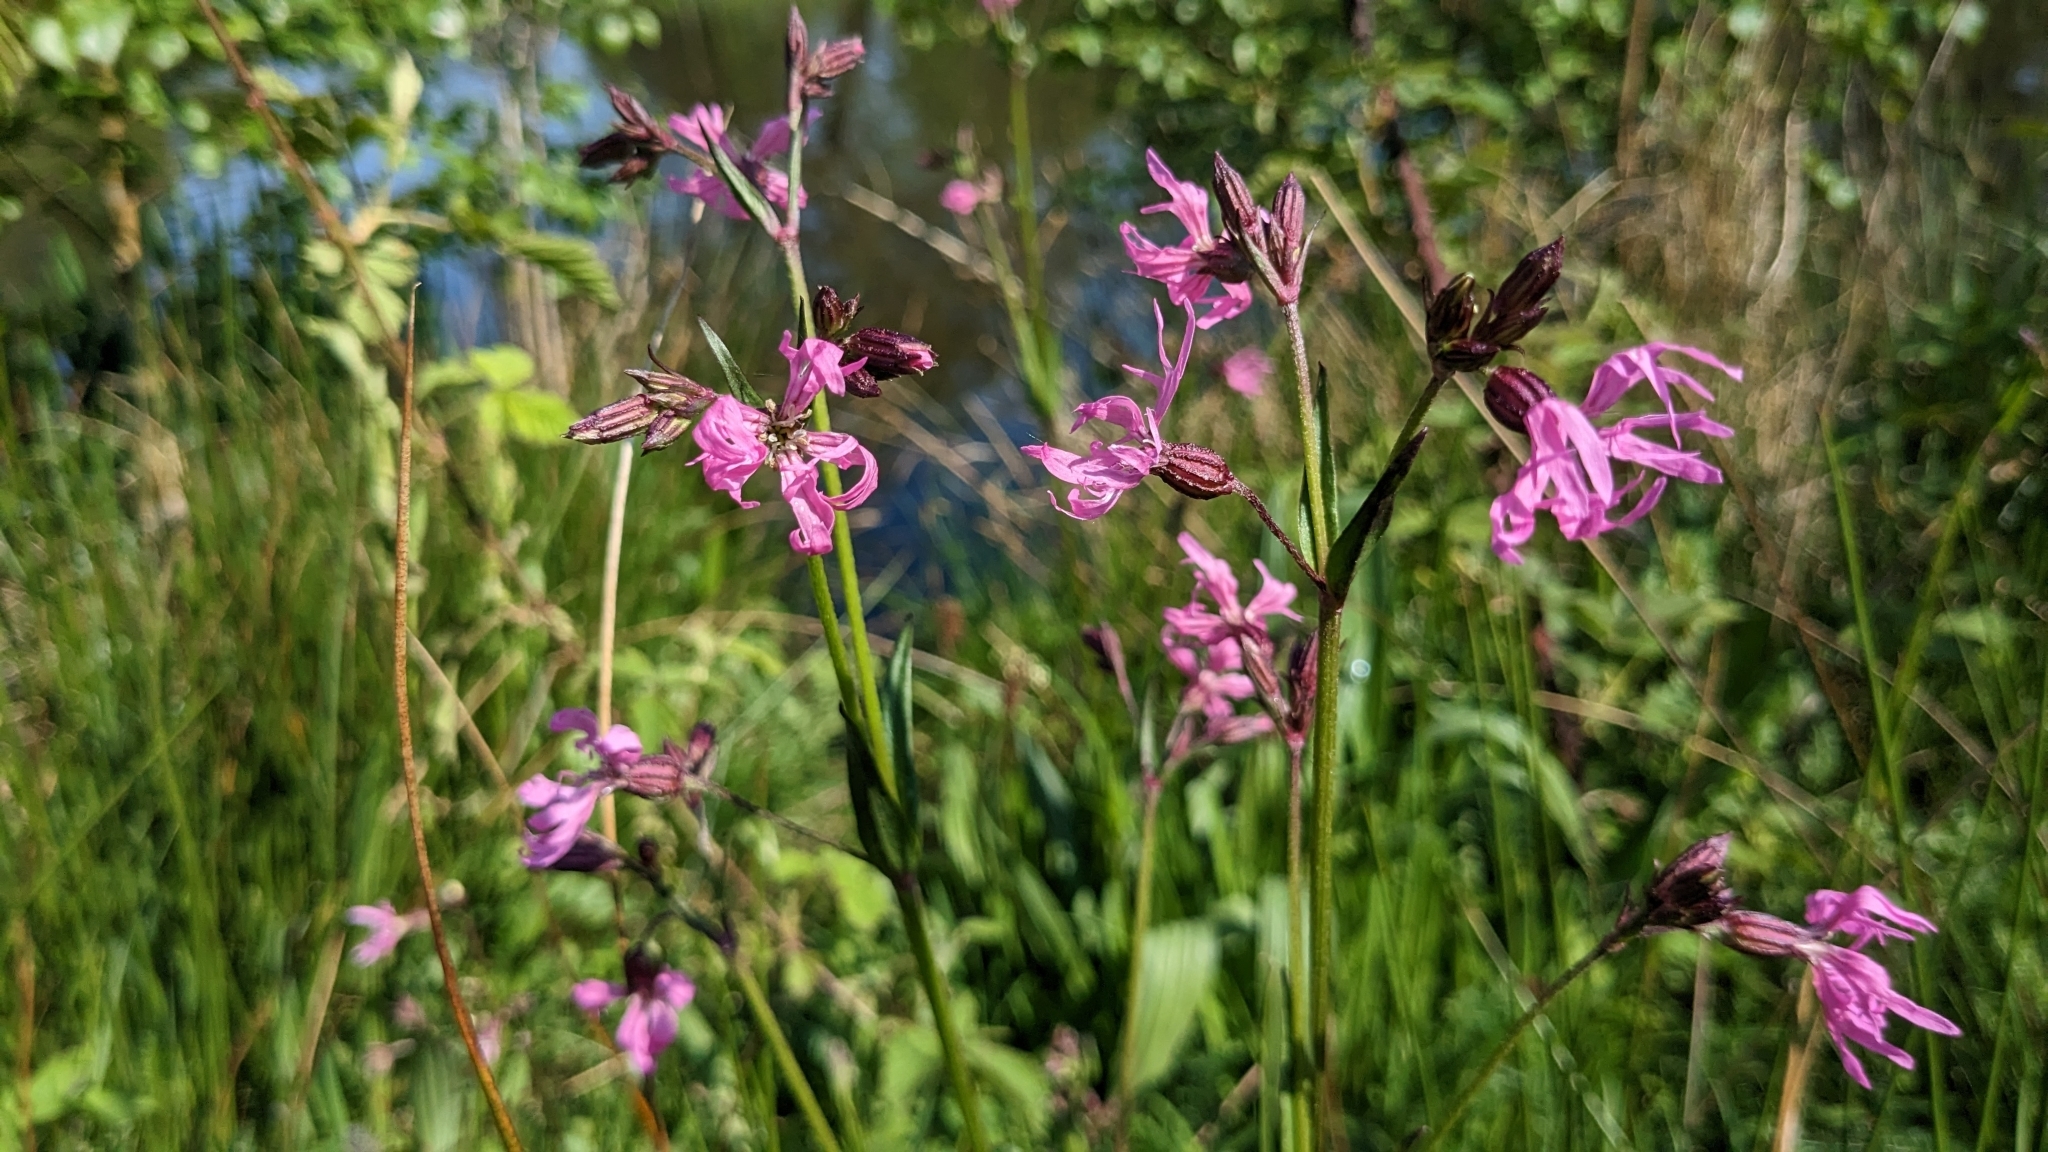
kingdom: Plantae
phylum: Tracheophyta
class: Magnoliopsida
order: Caryophyllales
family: Caryophyllaceae
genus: Silene
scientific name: Silene flos-cuculi
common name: Ragged-robin
